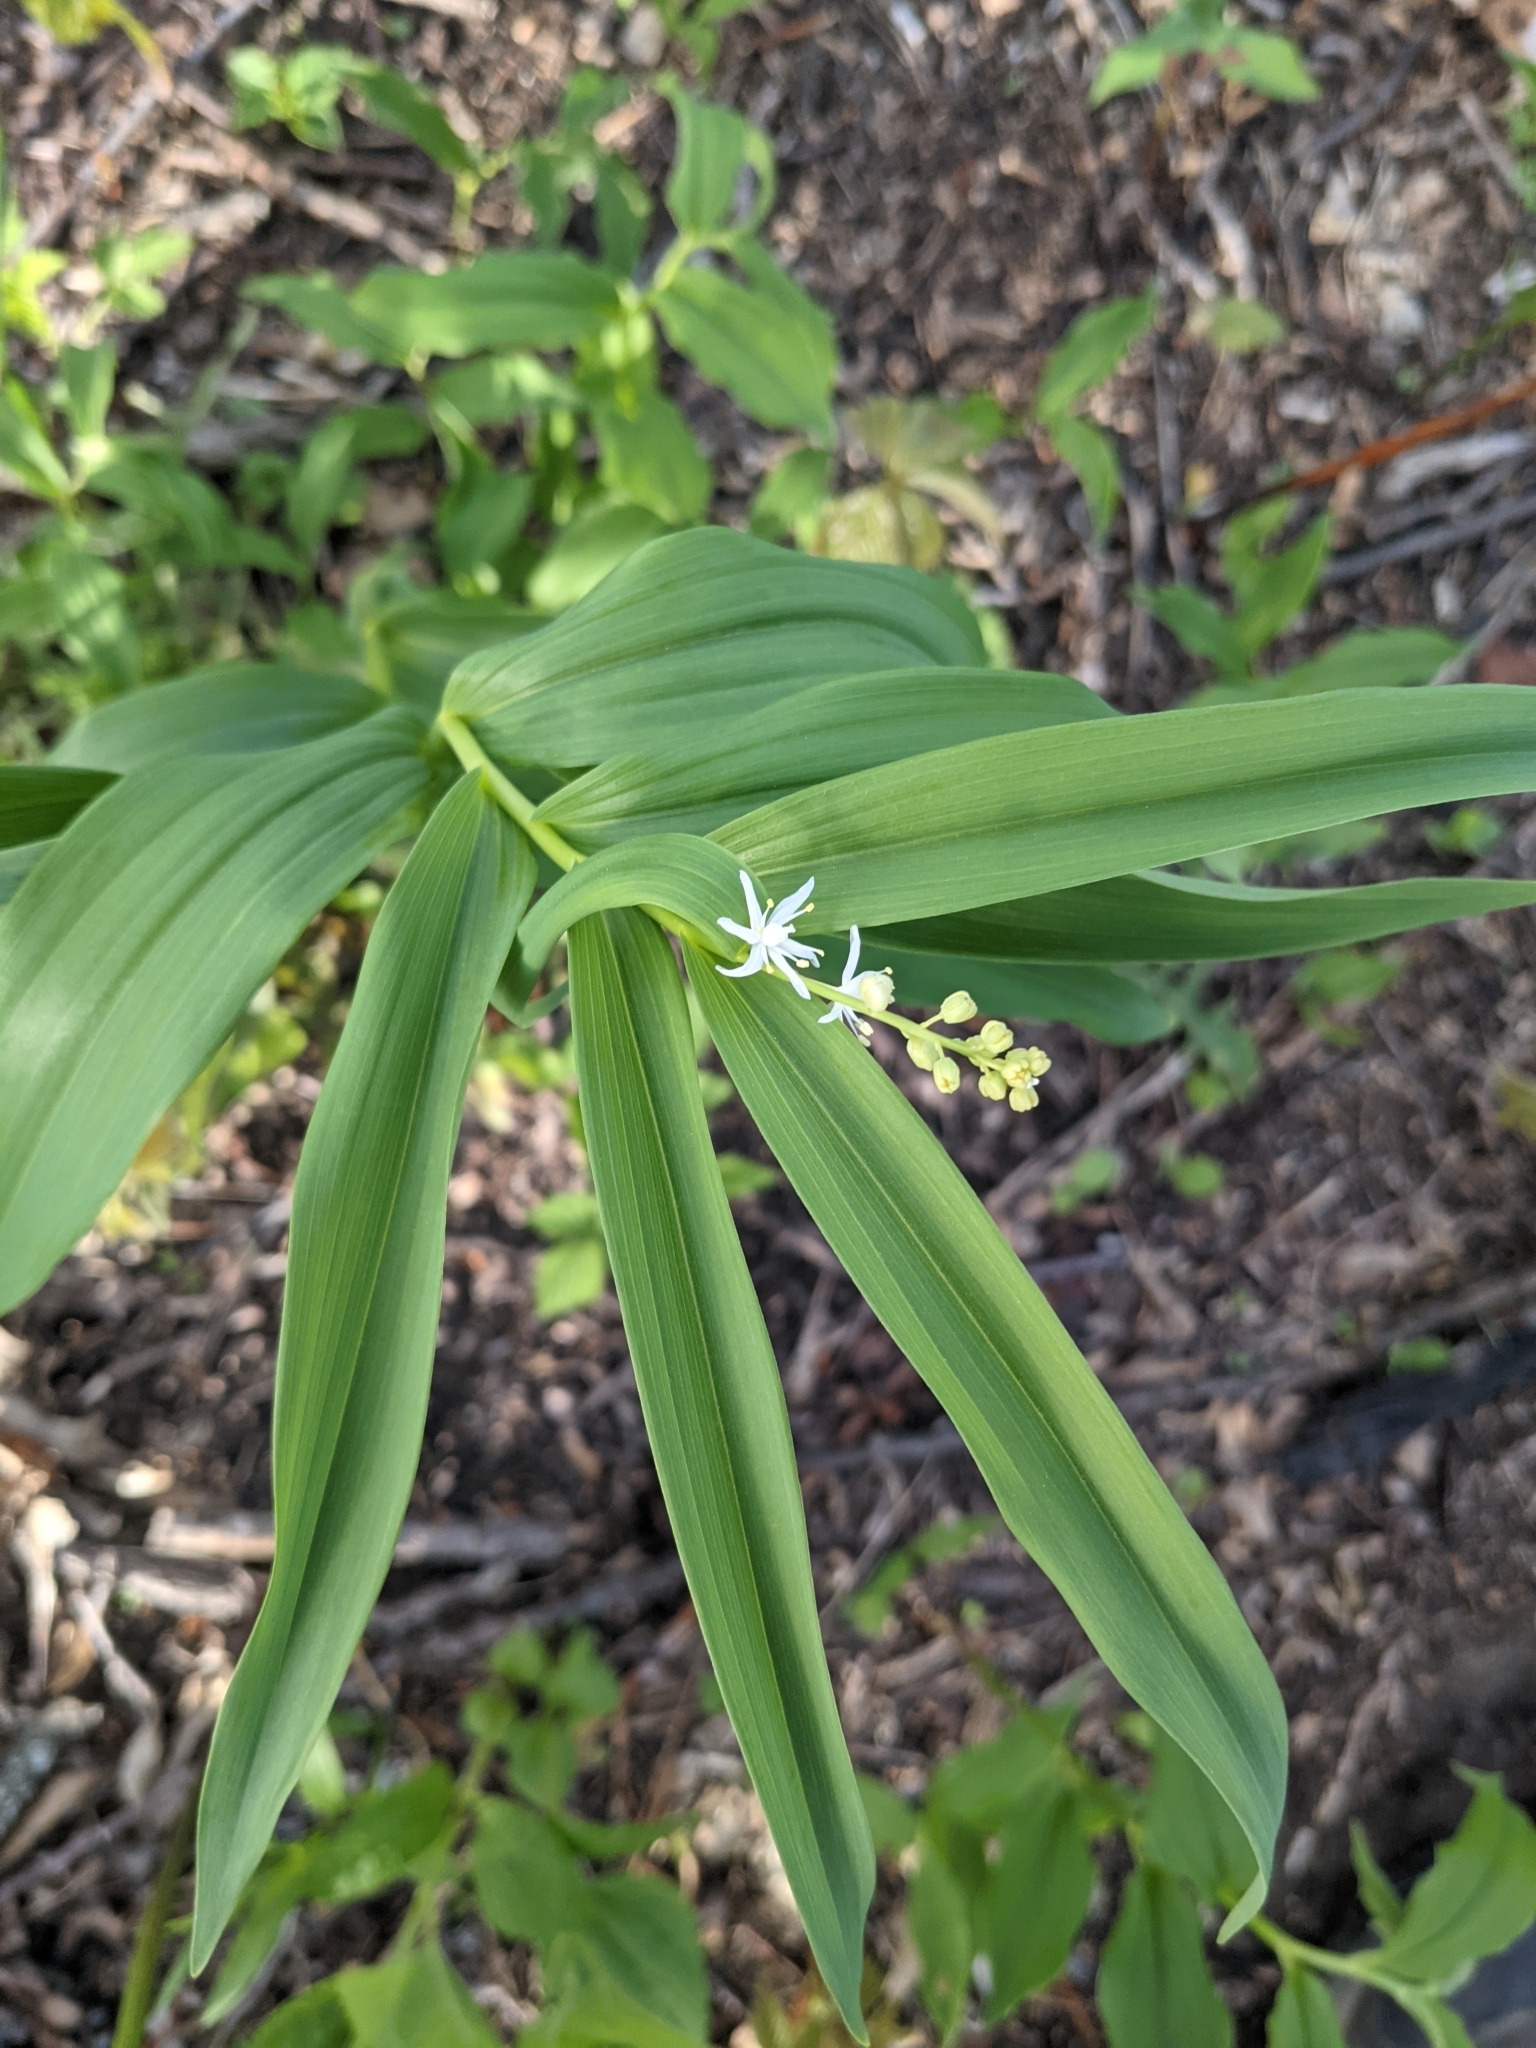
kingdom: Plantae
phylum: Tracheophyta
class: Liliopsida
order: Asparagales
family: Asparagaceae
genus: Maianthemum
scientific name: Maianthemum stellatum
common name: Little false solomon's seal
